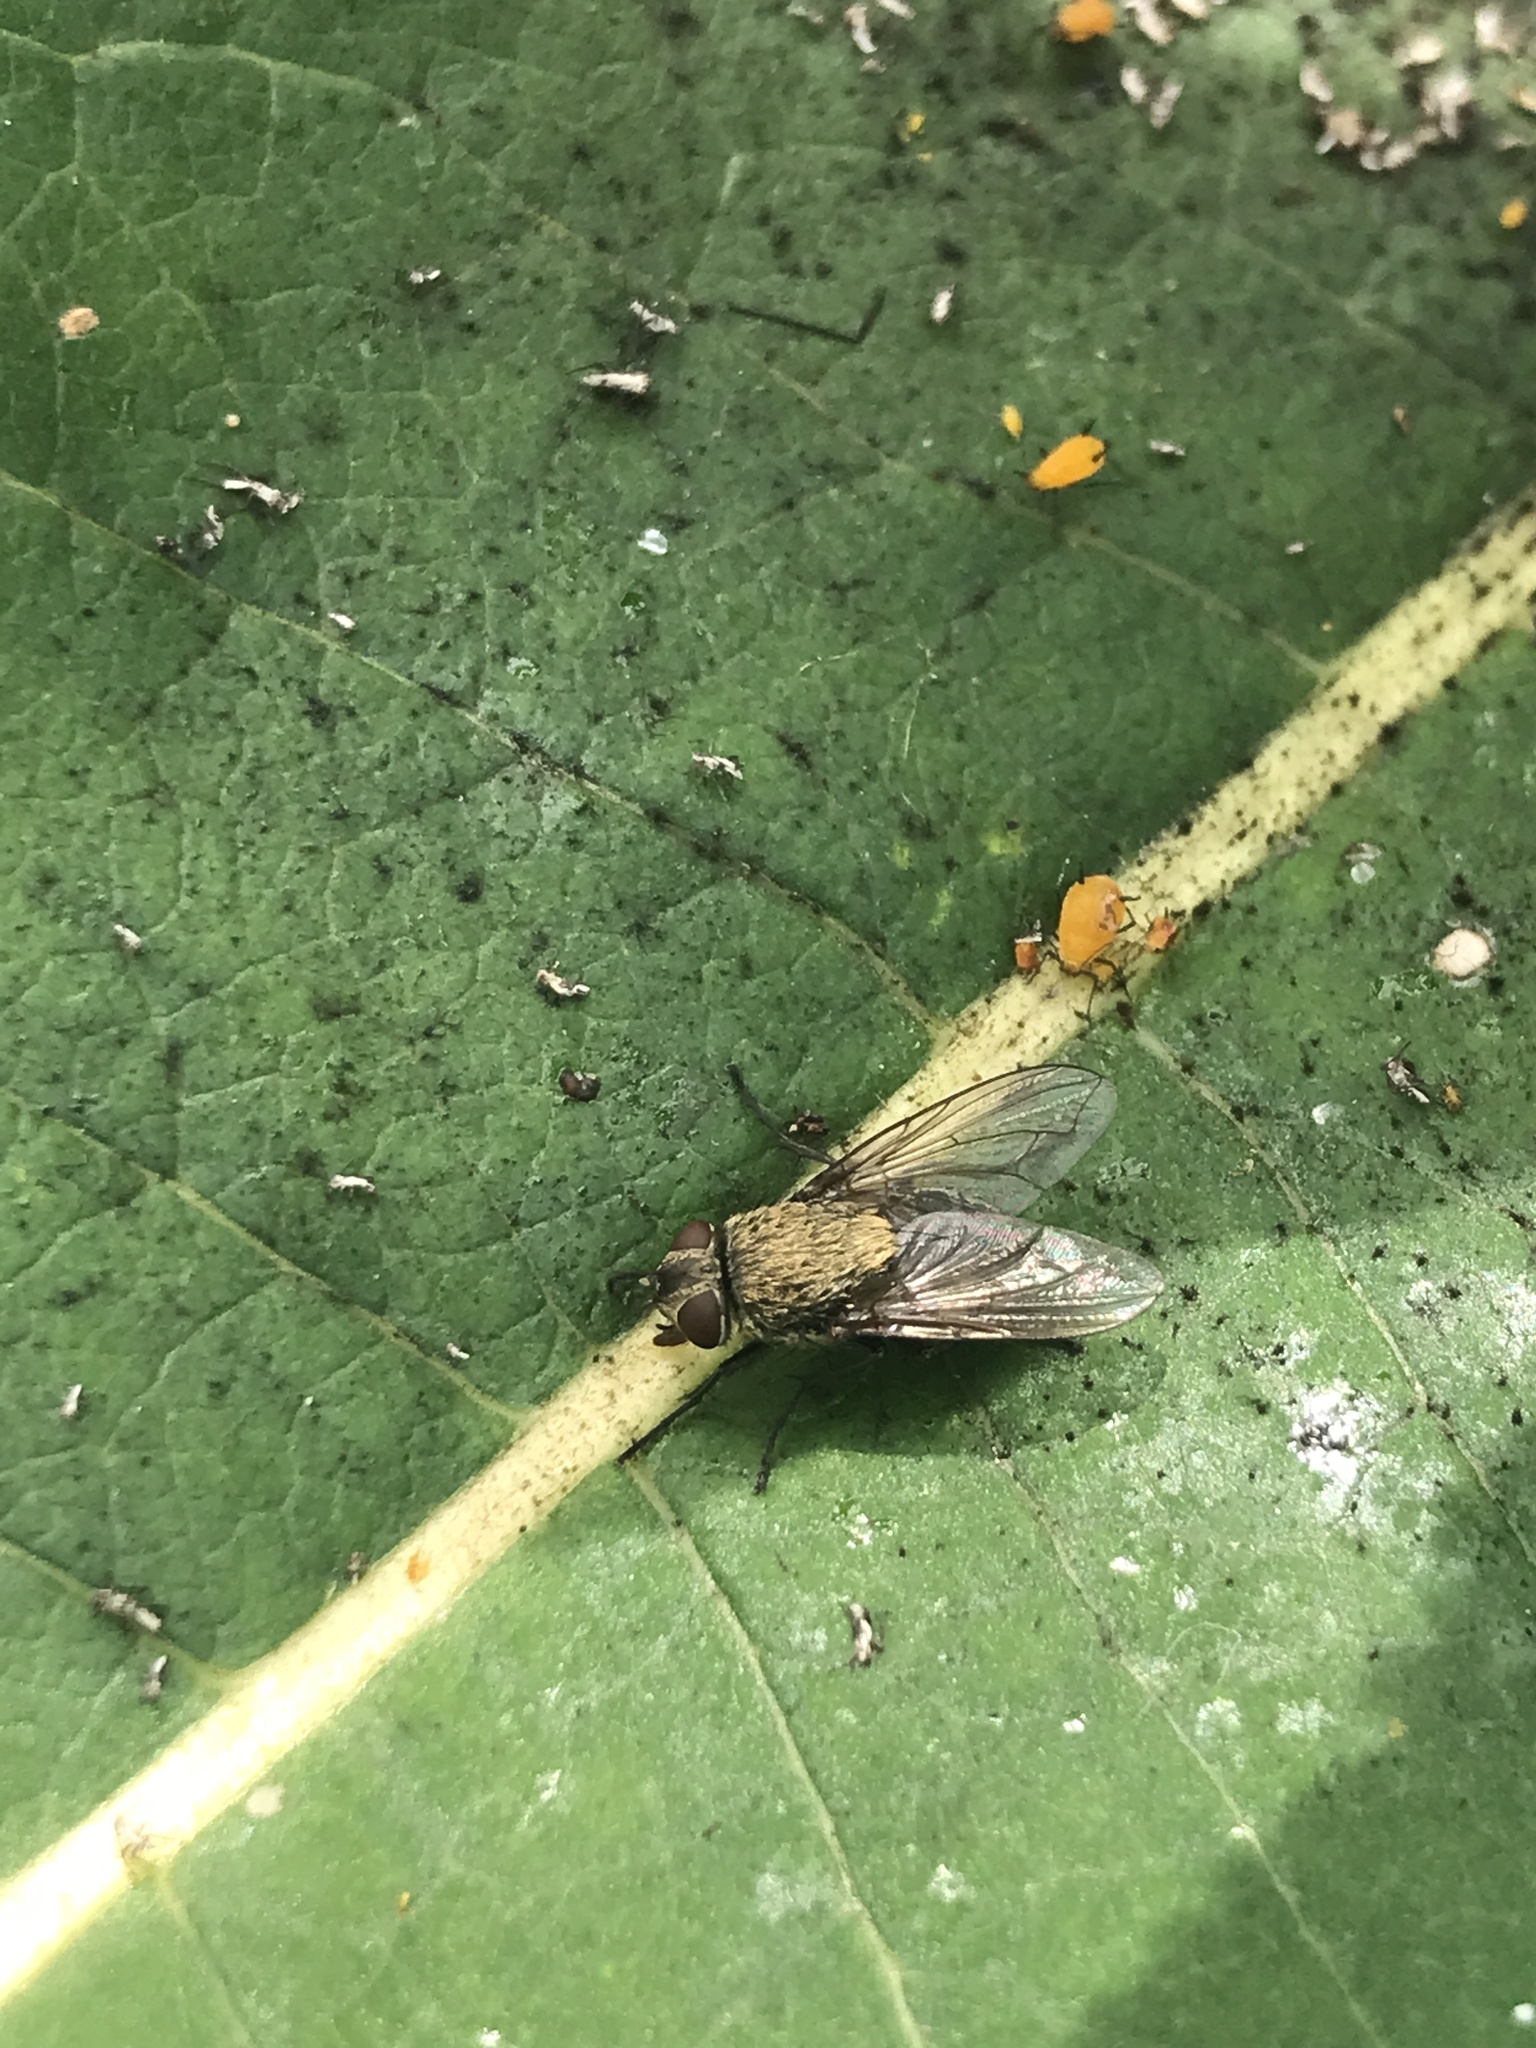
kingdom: Animalia
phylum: Arthropoda
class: Insecta
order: Diptera
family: Polleniidae
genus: Pollenia
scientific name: Pollenia
